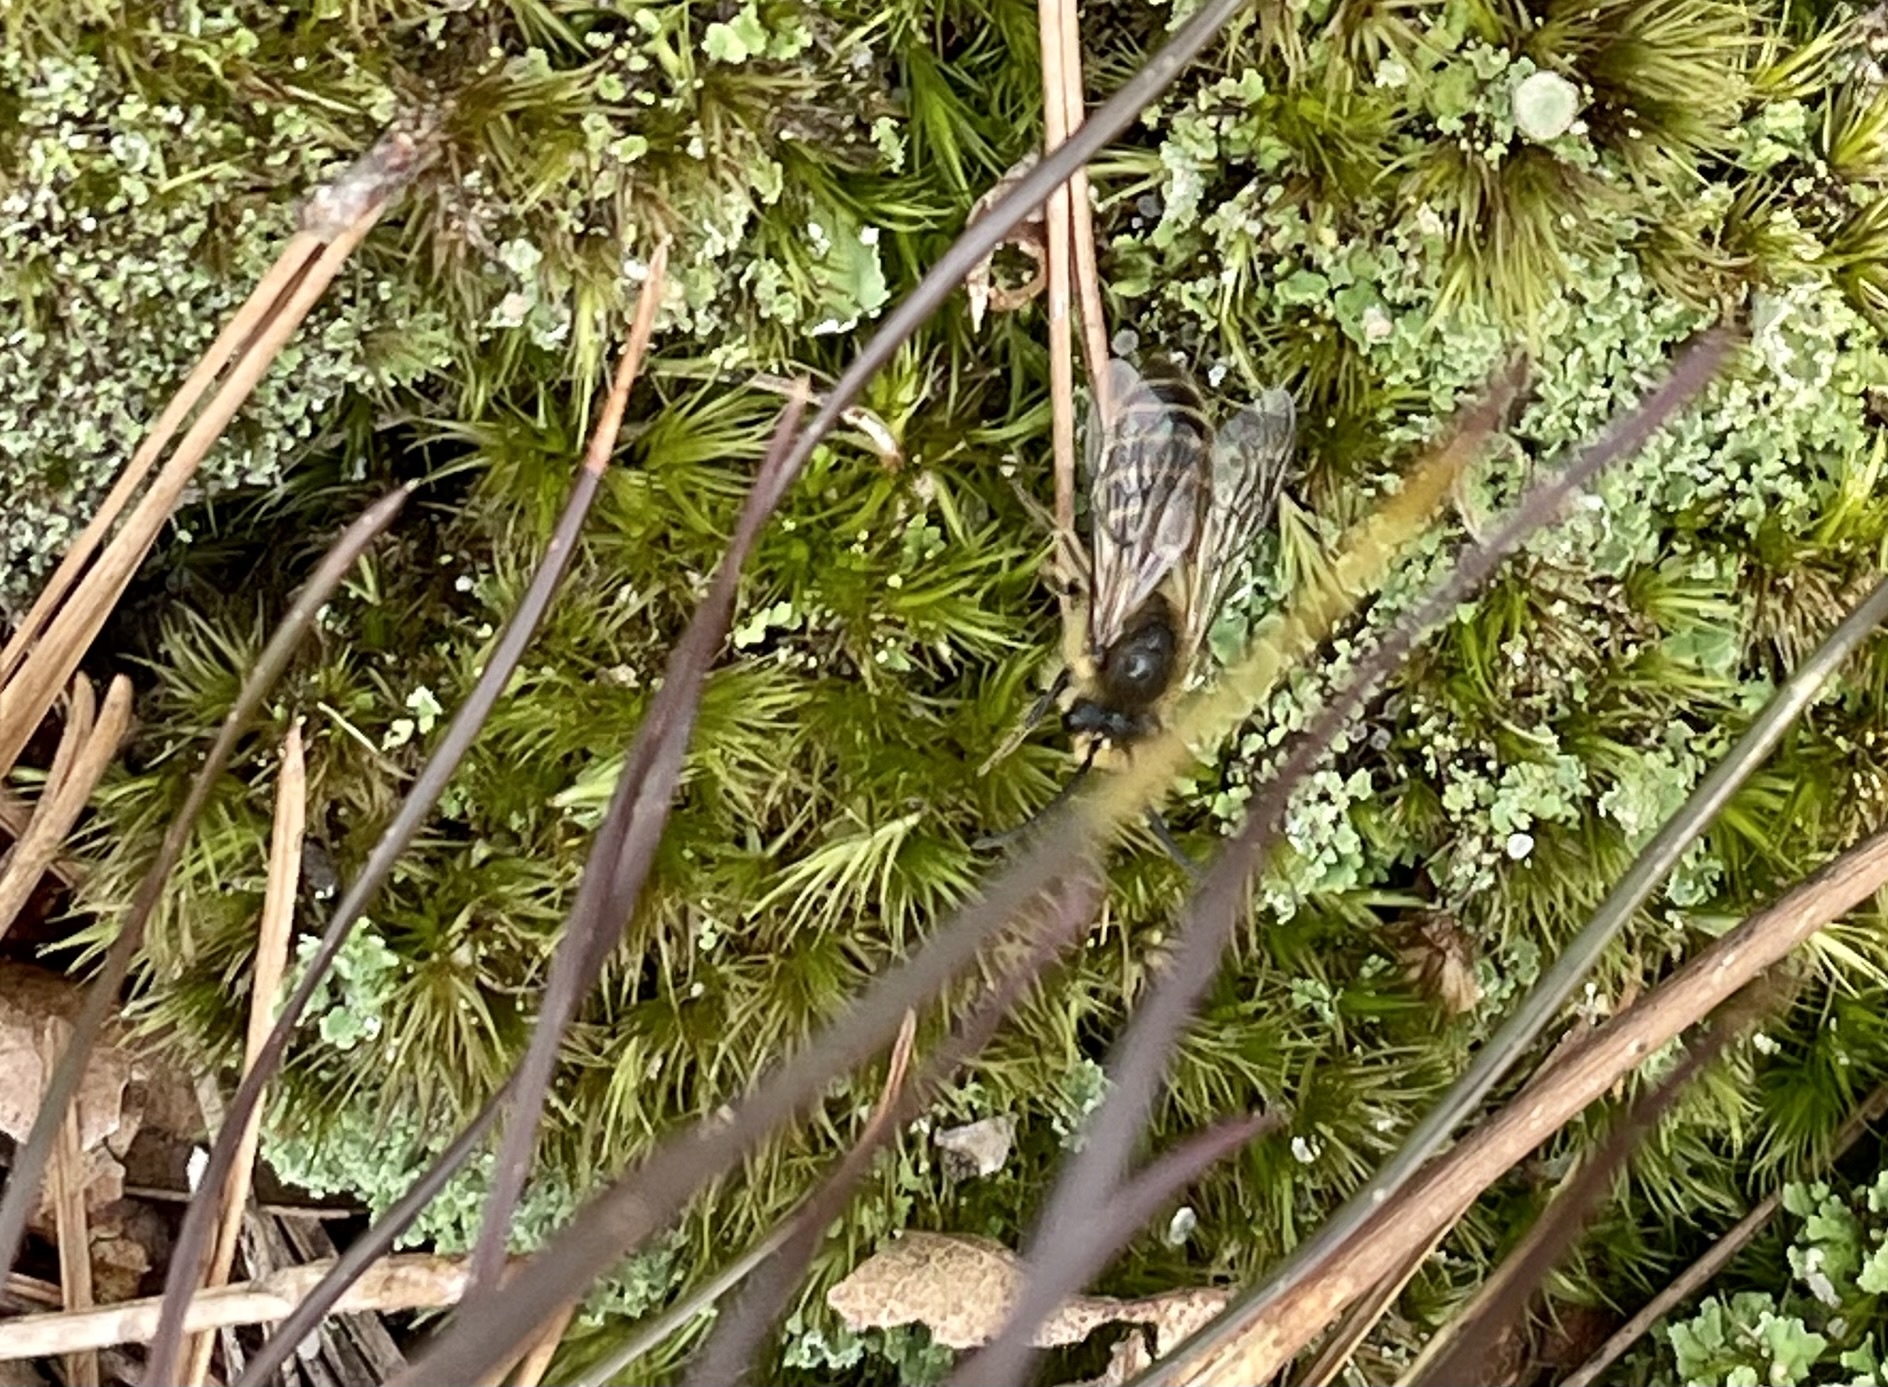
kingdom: Animalia
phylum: Arthropoda
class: Insecta
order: Hymenoptera
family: Colletidae
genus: Colletes
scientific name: Colletes inaequalis
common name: Unequal cellophane bee
